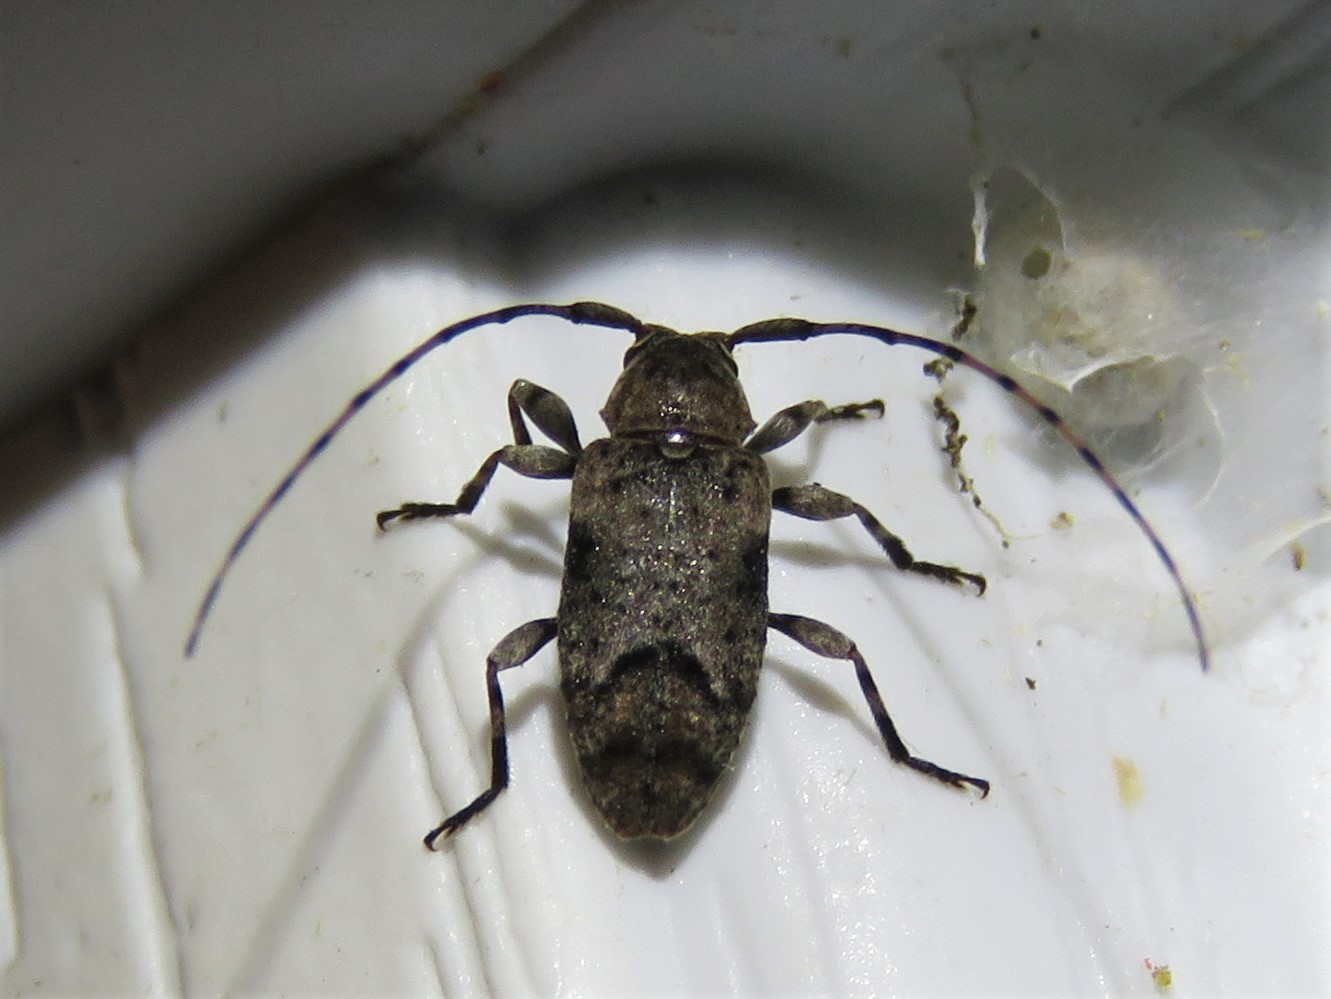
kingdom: Animalia
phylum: Arthropoda
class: Insecta
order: Coleoptera
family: Cerambycidae
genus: Sternidius
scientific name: Sternidius mimeticus
